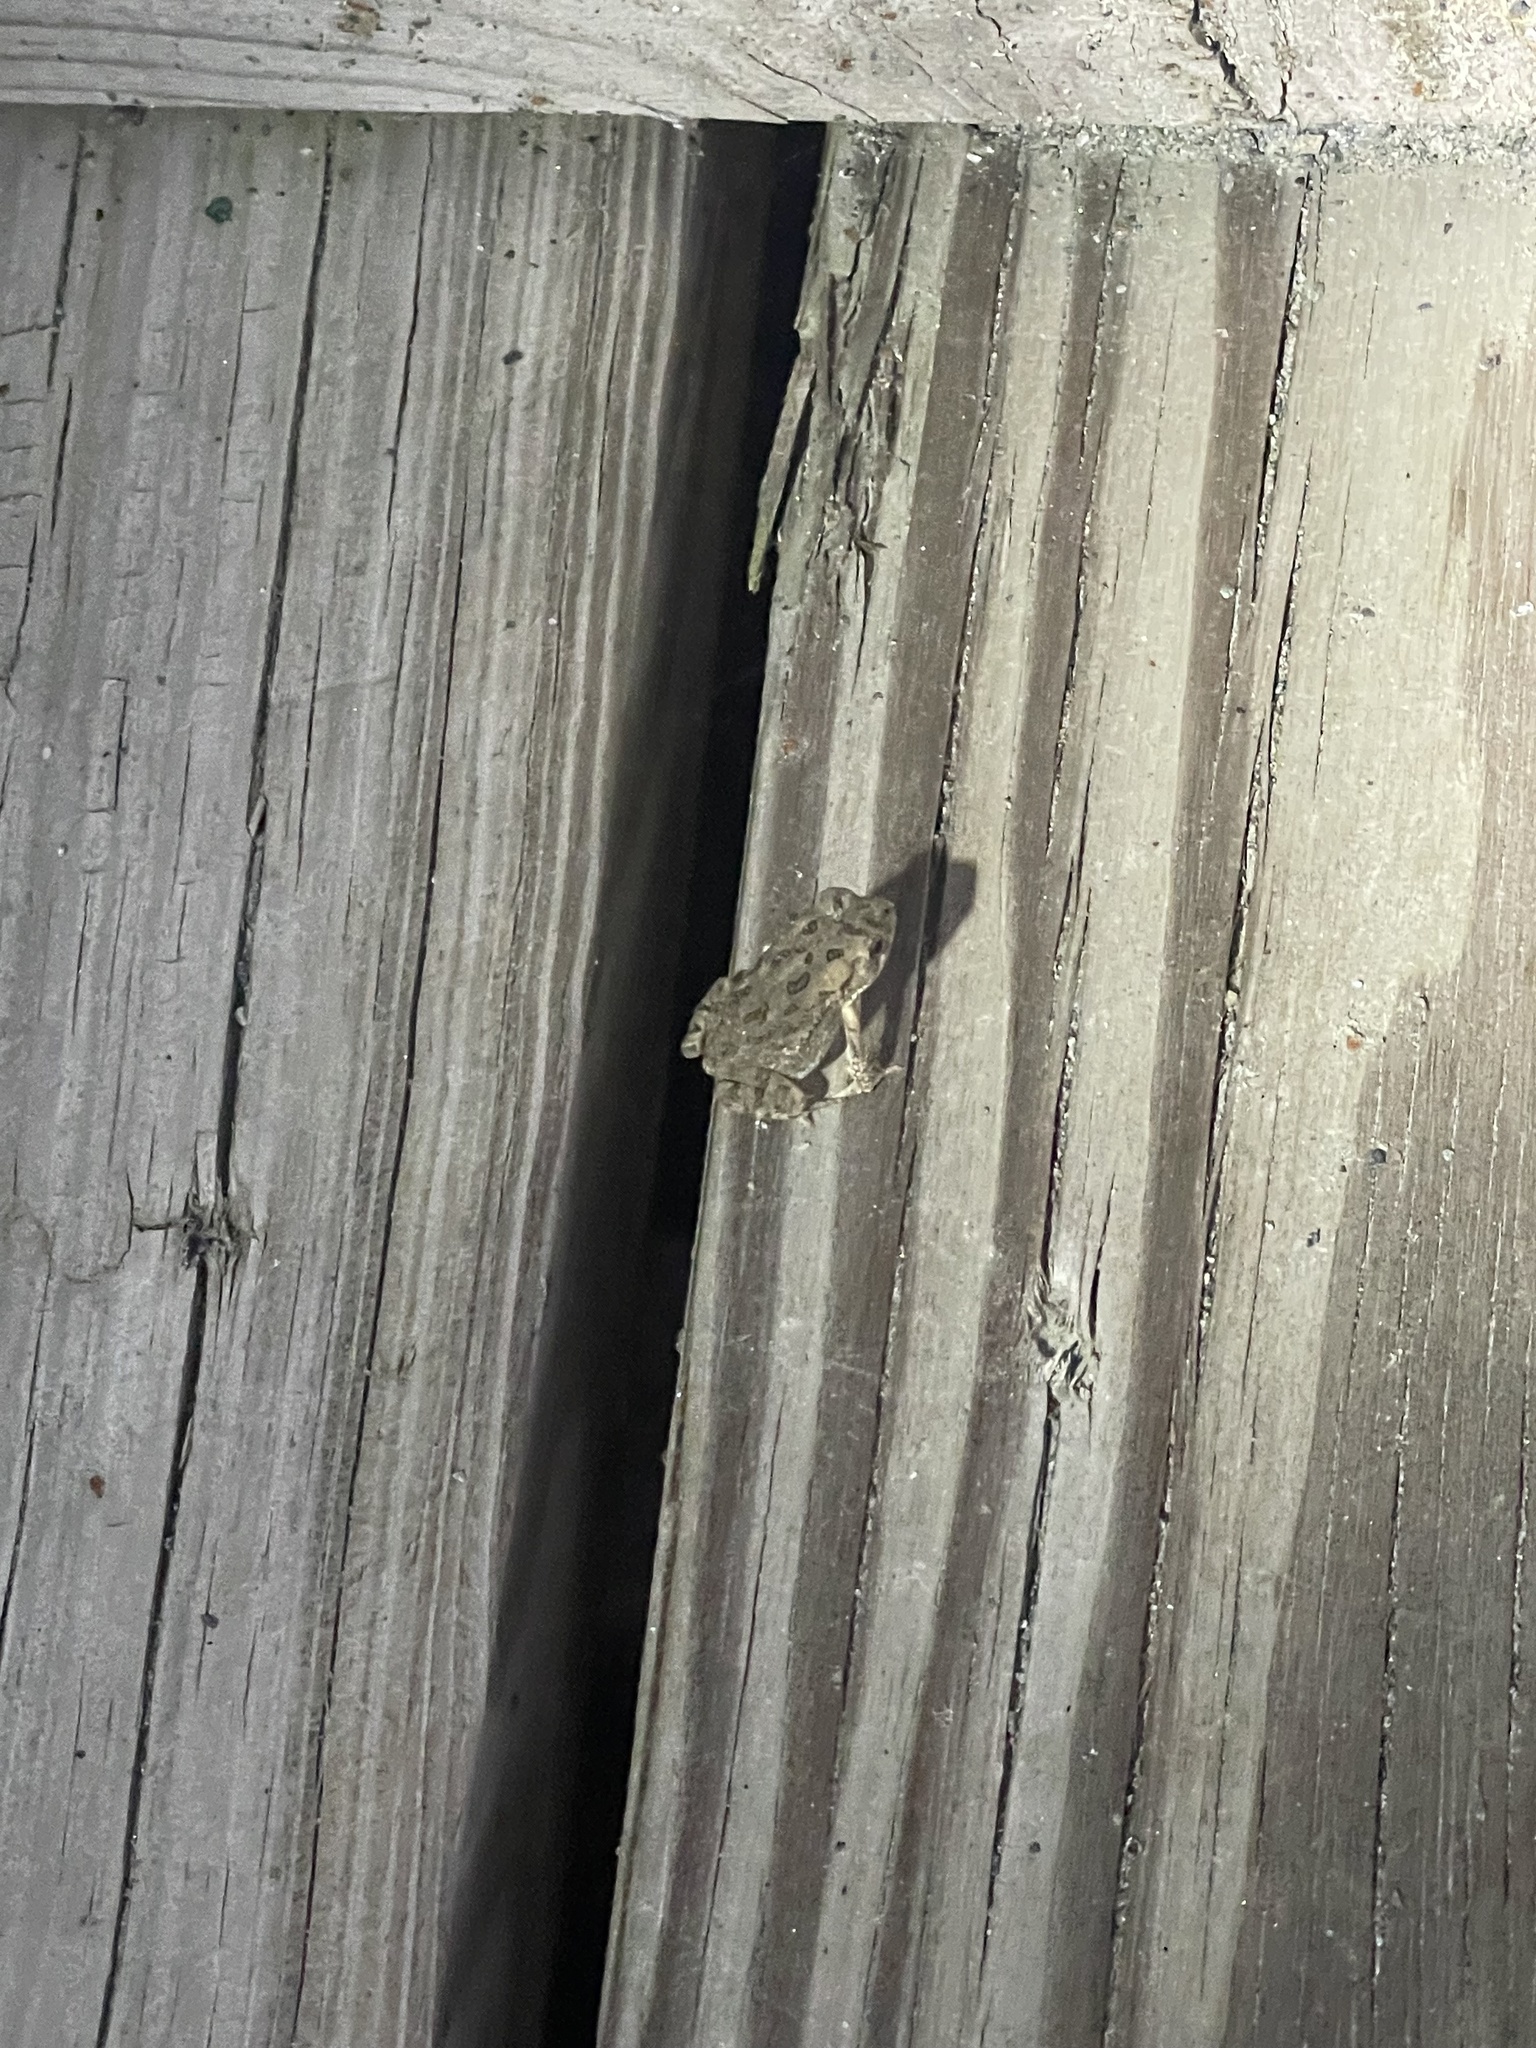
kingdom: Animalia
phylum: Chordata
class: Amphibia
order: Anura
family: Bufonidae
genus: Anaxyrus
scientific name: Anaxyrus fowleri
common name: Fowler's toad
